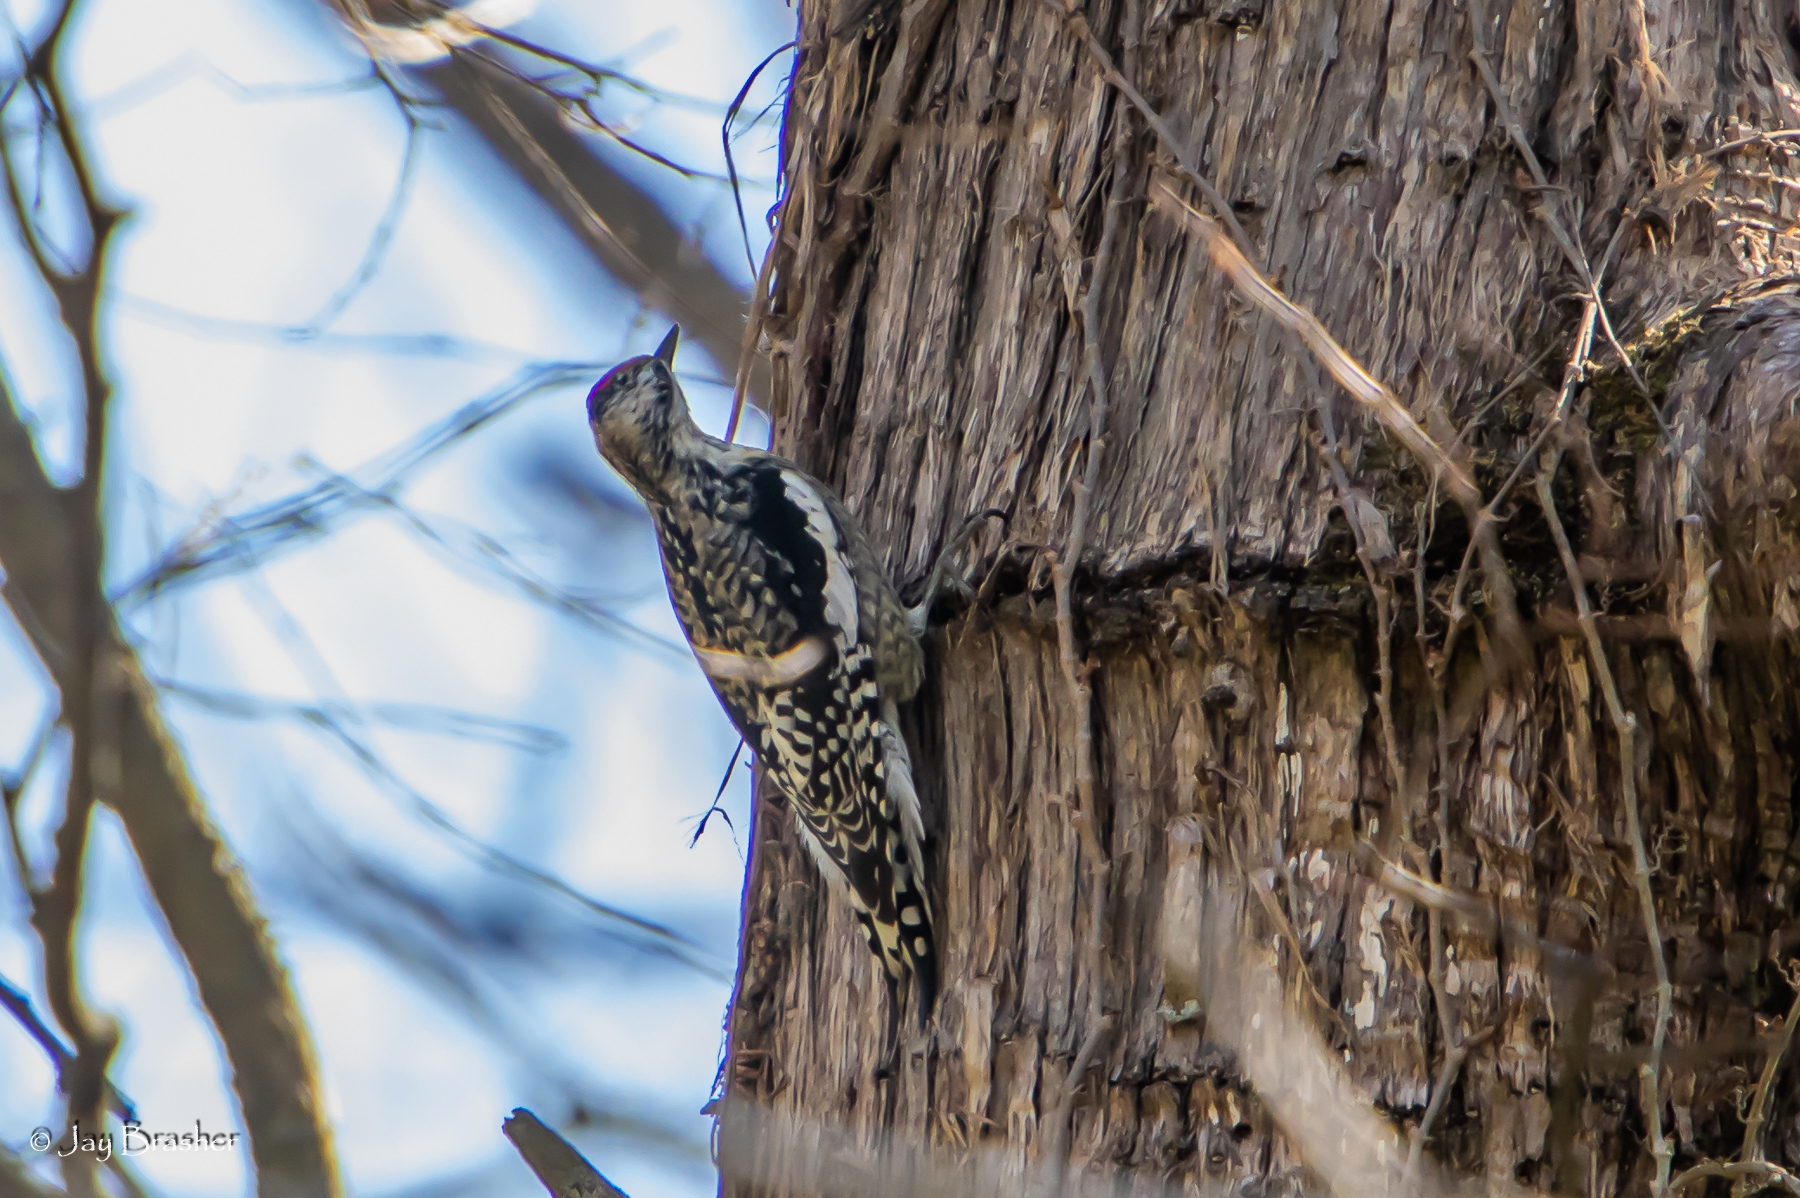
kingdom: Animalia
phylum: Chordata
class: Aves
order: Piciformes
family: Picidae
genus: Sphyrapicus
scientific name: Sphyrapicus varius
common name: Yellow-bellied sapsucker
